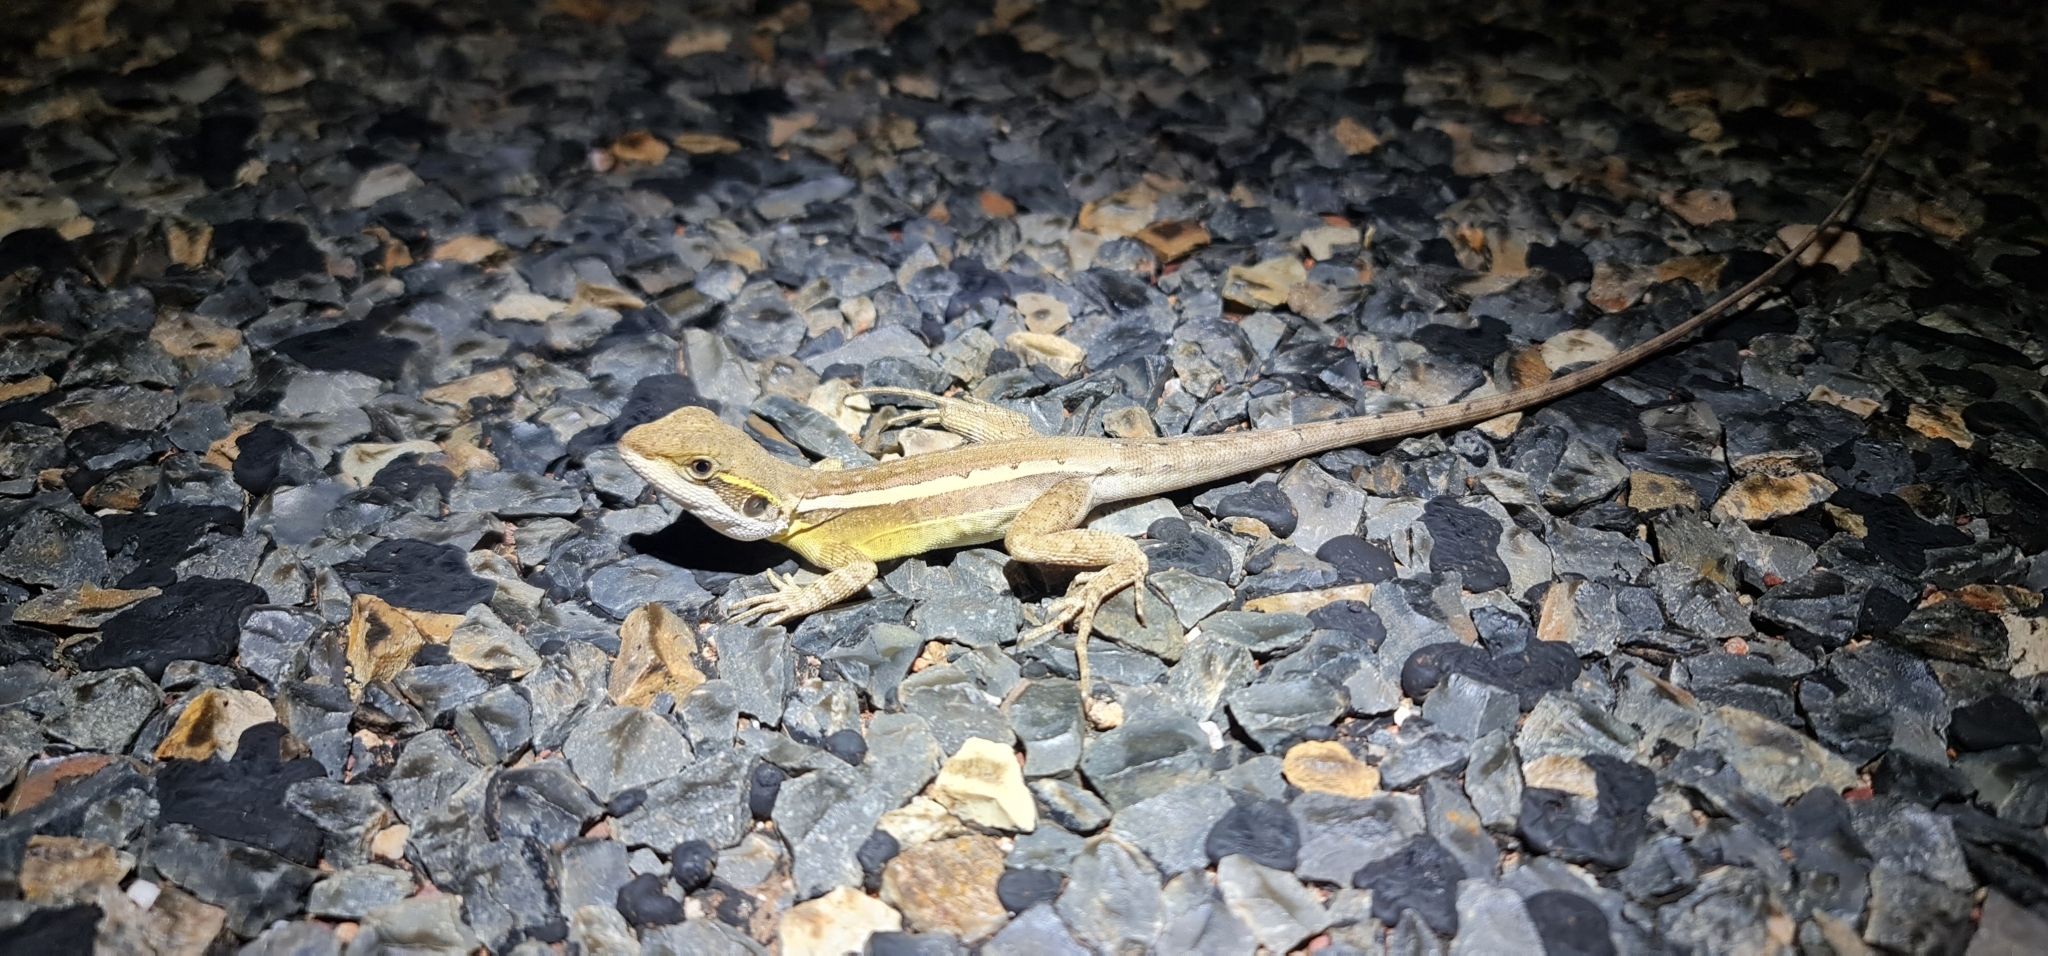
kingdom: Animalia
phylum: Chordata
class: Squamata
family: Agamidae
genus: Lophognathus
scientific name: Lophognathus gilberti
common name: Gilbert's dragon
